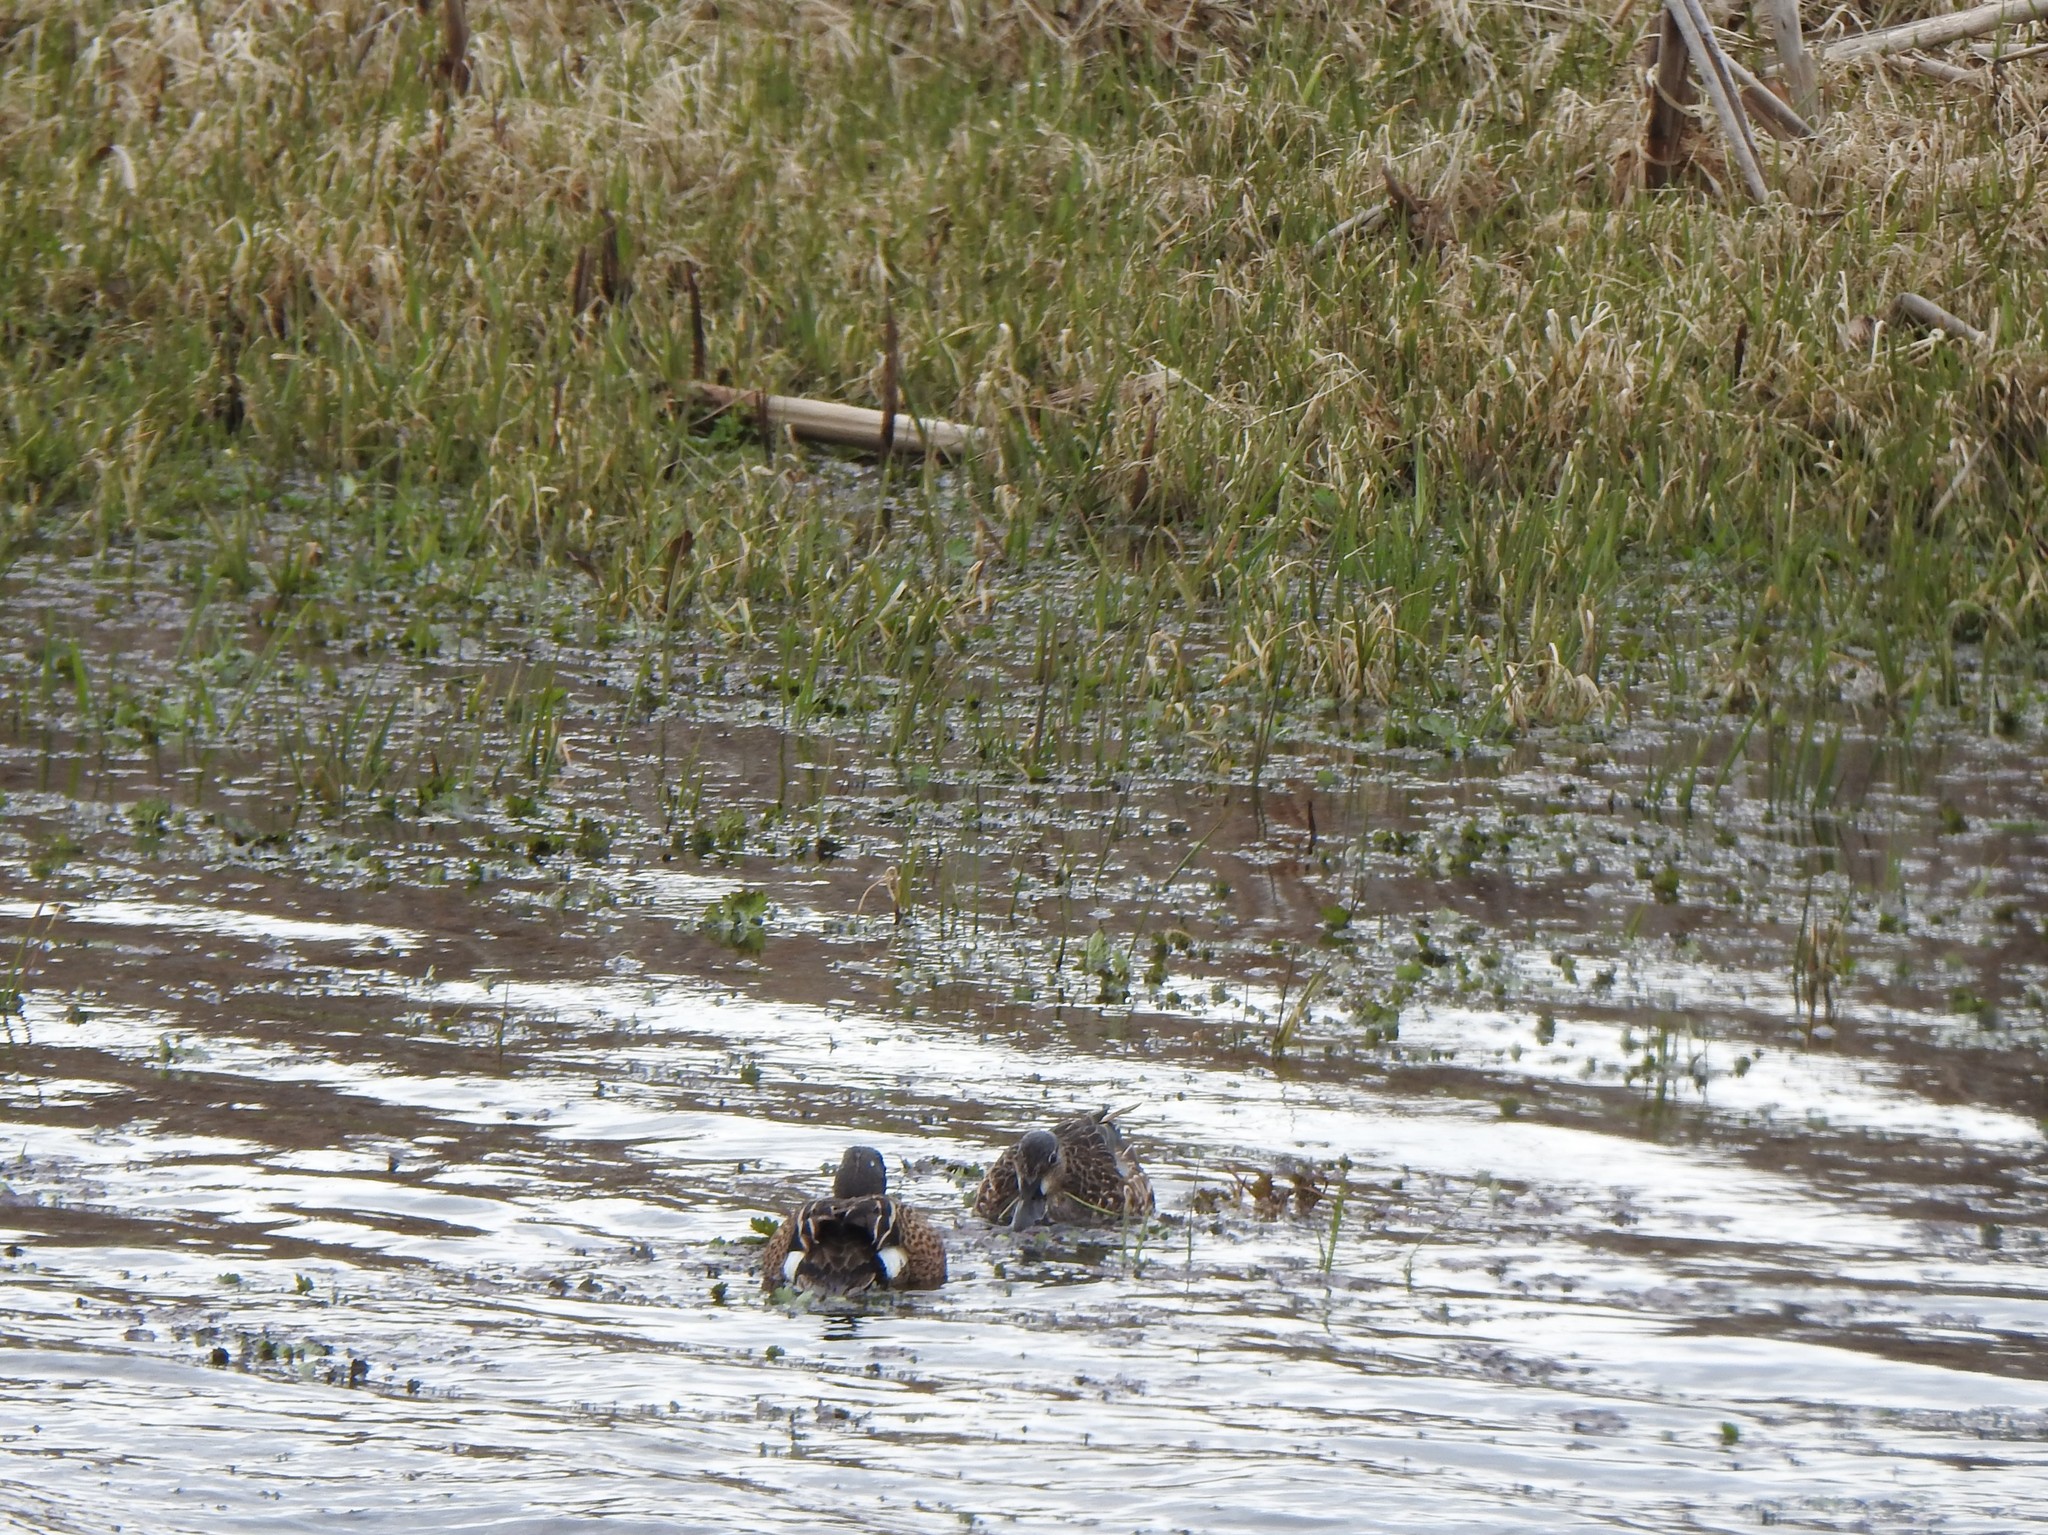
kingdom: Animalia
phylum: Chordata
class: Aves
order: Anseriformes
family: Anatidae
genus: Spatula
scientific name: Spatula discors
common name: Blue-winged teal
